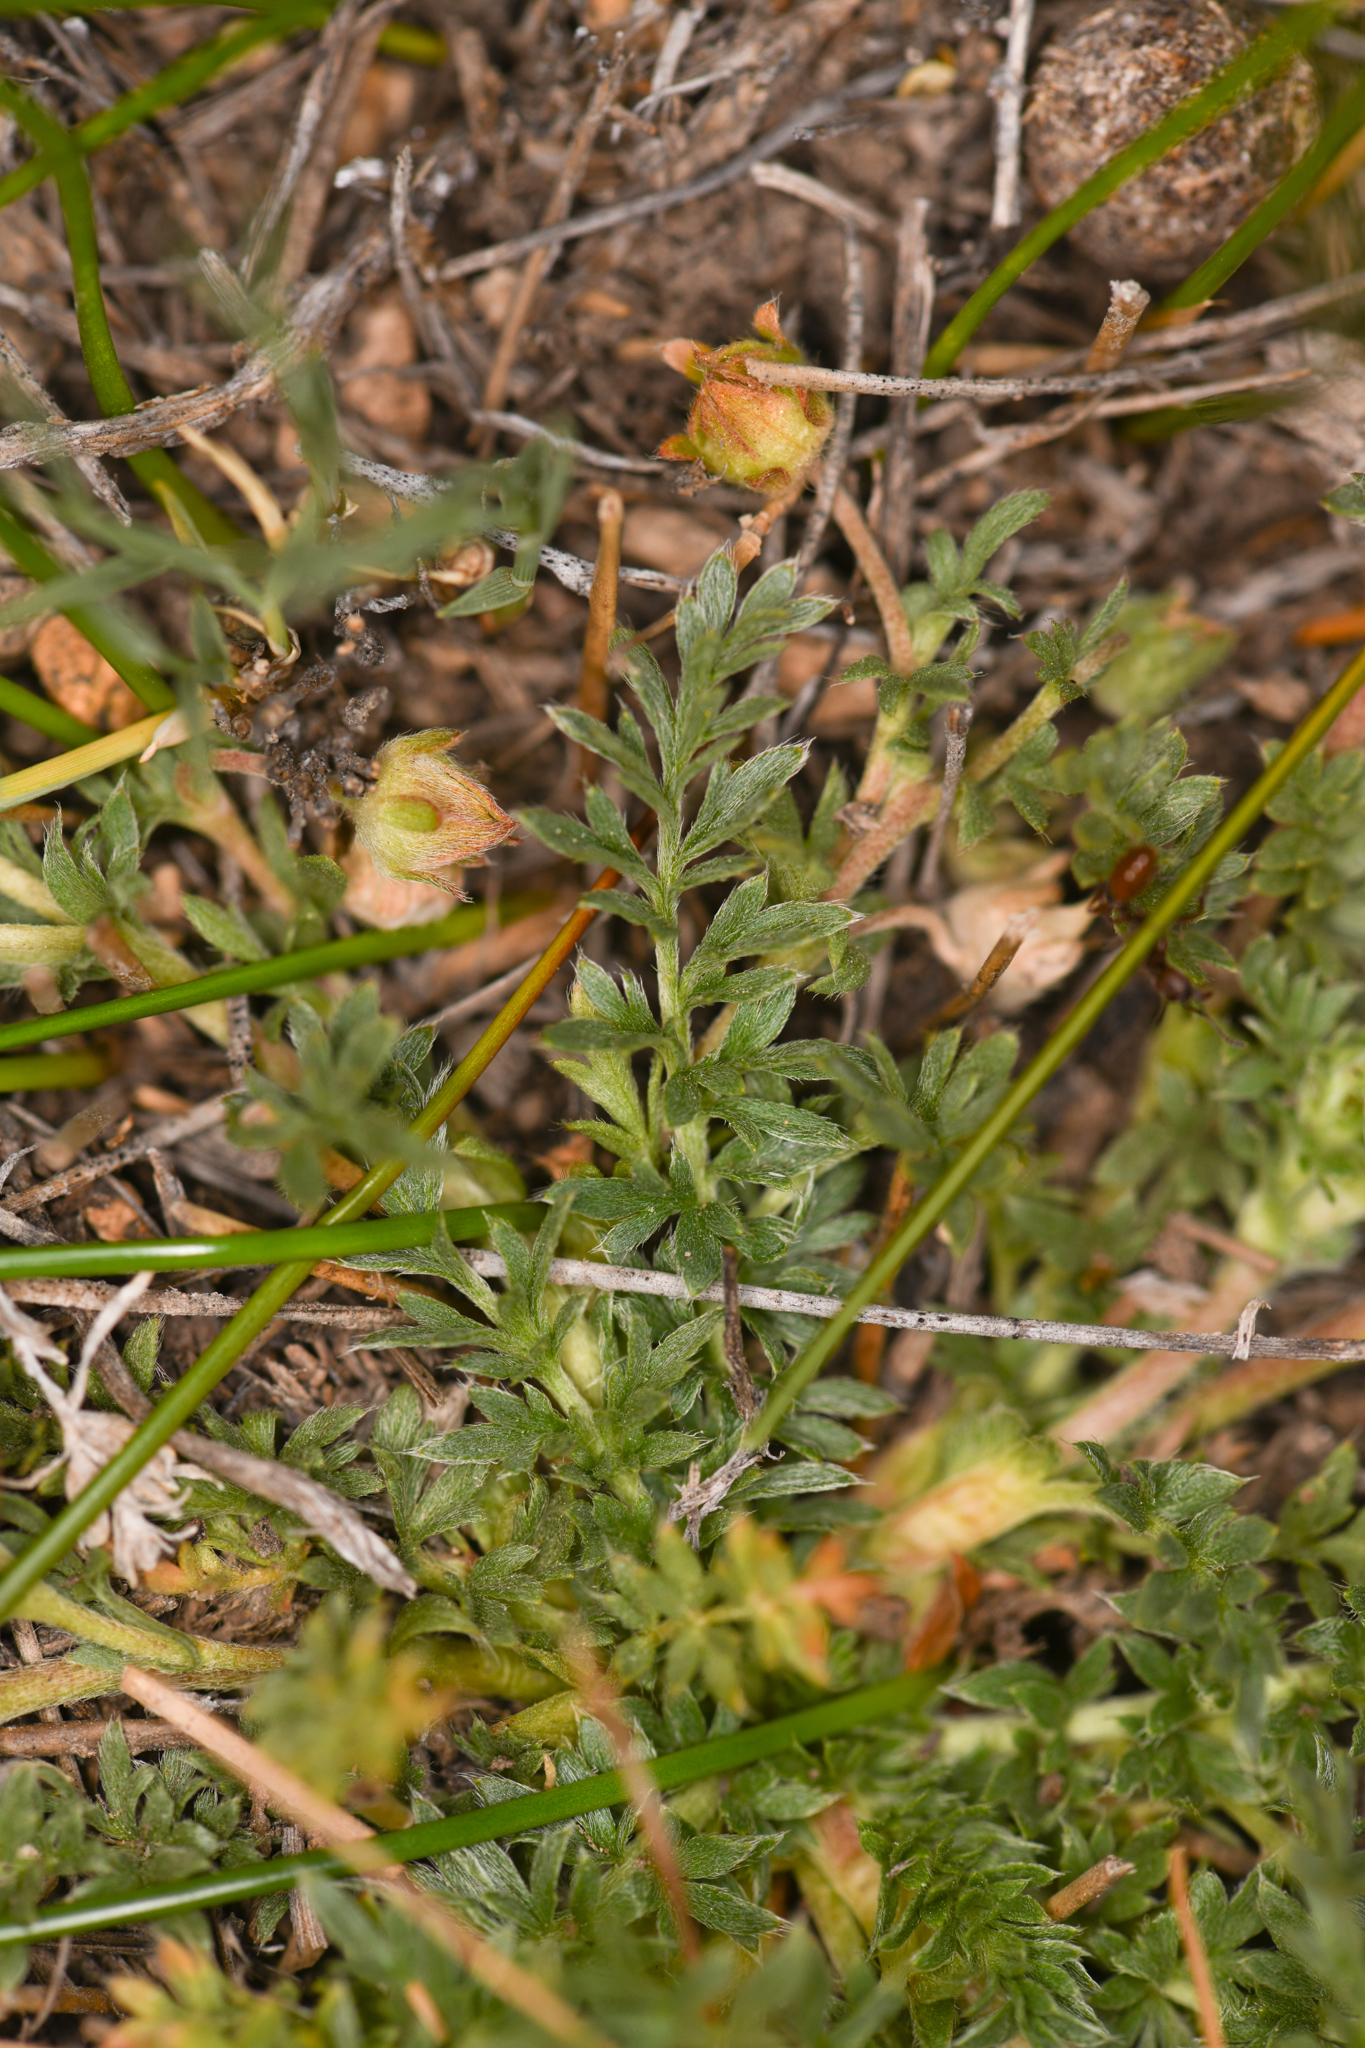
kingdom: Plantae
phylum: Tracheophyta
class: Magnoliopsida
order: Rosales
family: Rosaceae
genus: Potentilla
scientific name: Potentilla millefolia
